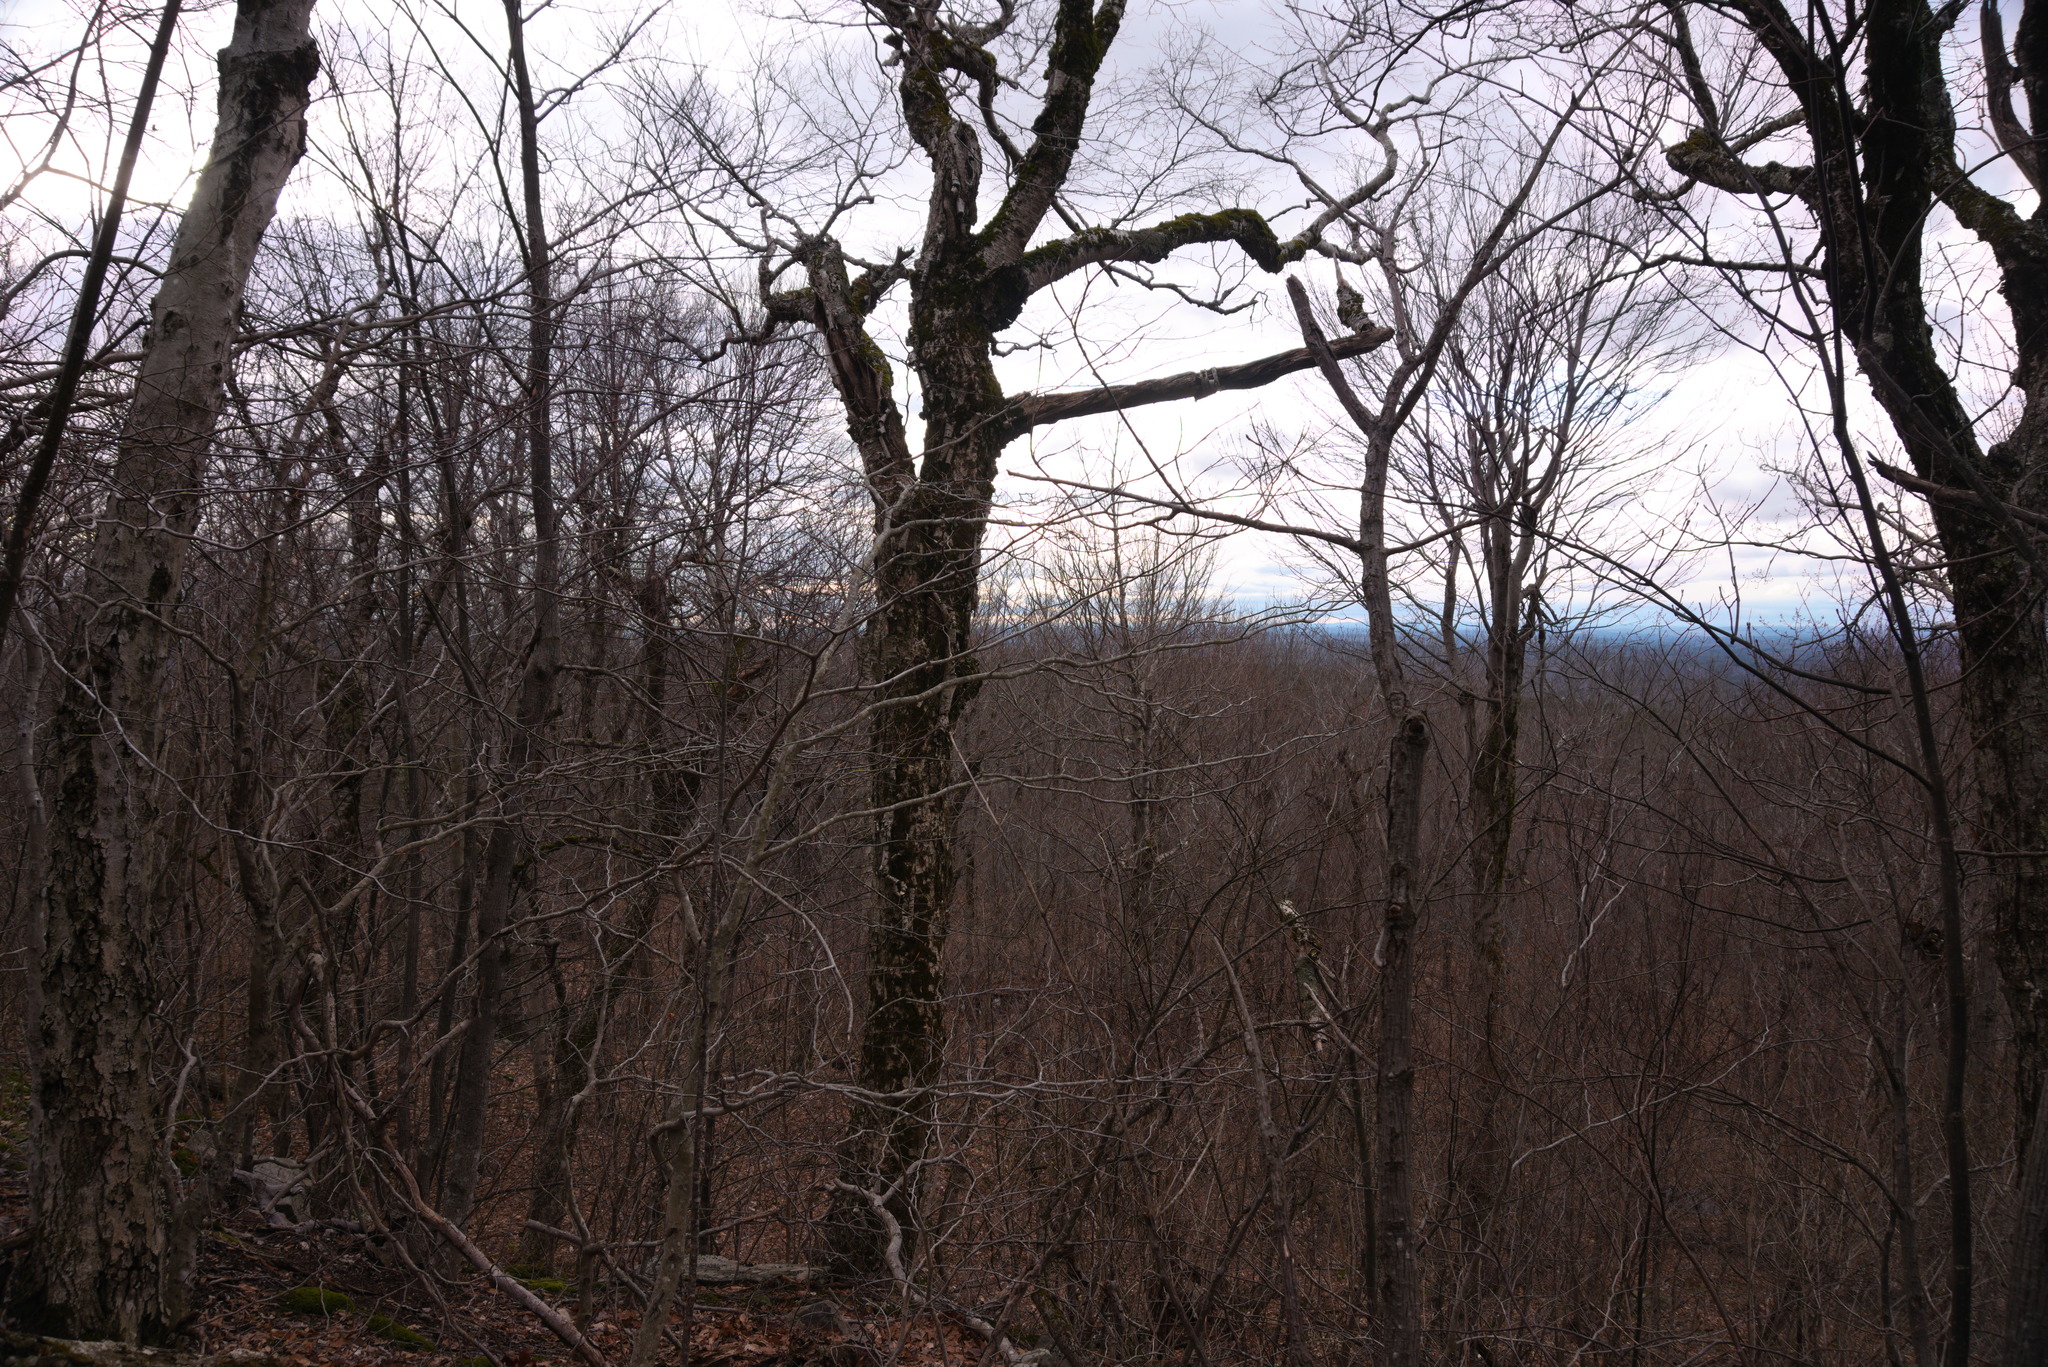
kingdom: Plantae
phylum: Tracheophyta
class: Magnoliopsida
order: Fagales
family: Betulaceae
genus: Betula
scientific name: Betula alleghaniensis
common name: Yellow birch
